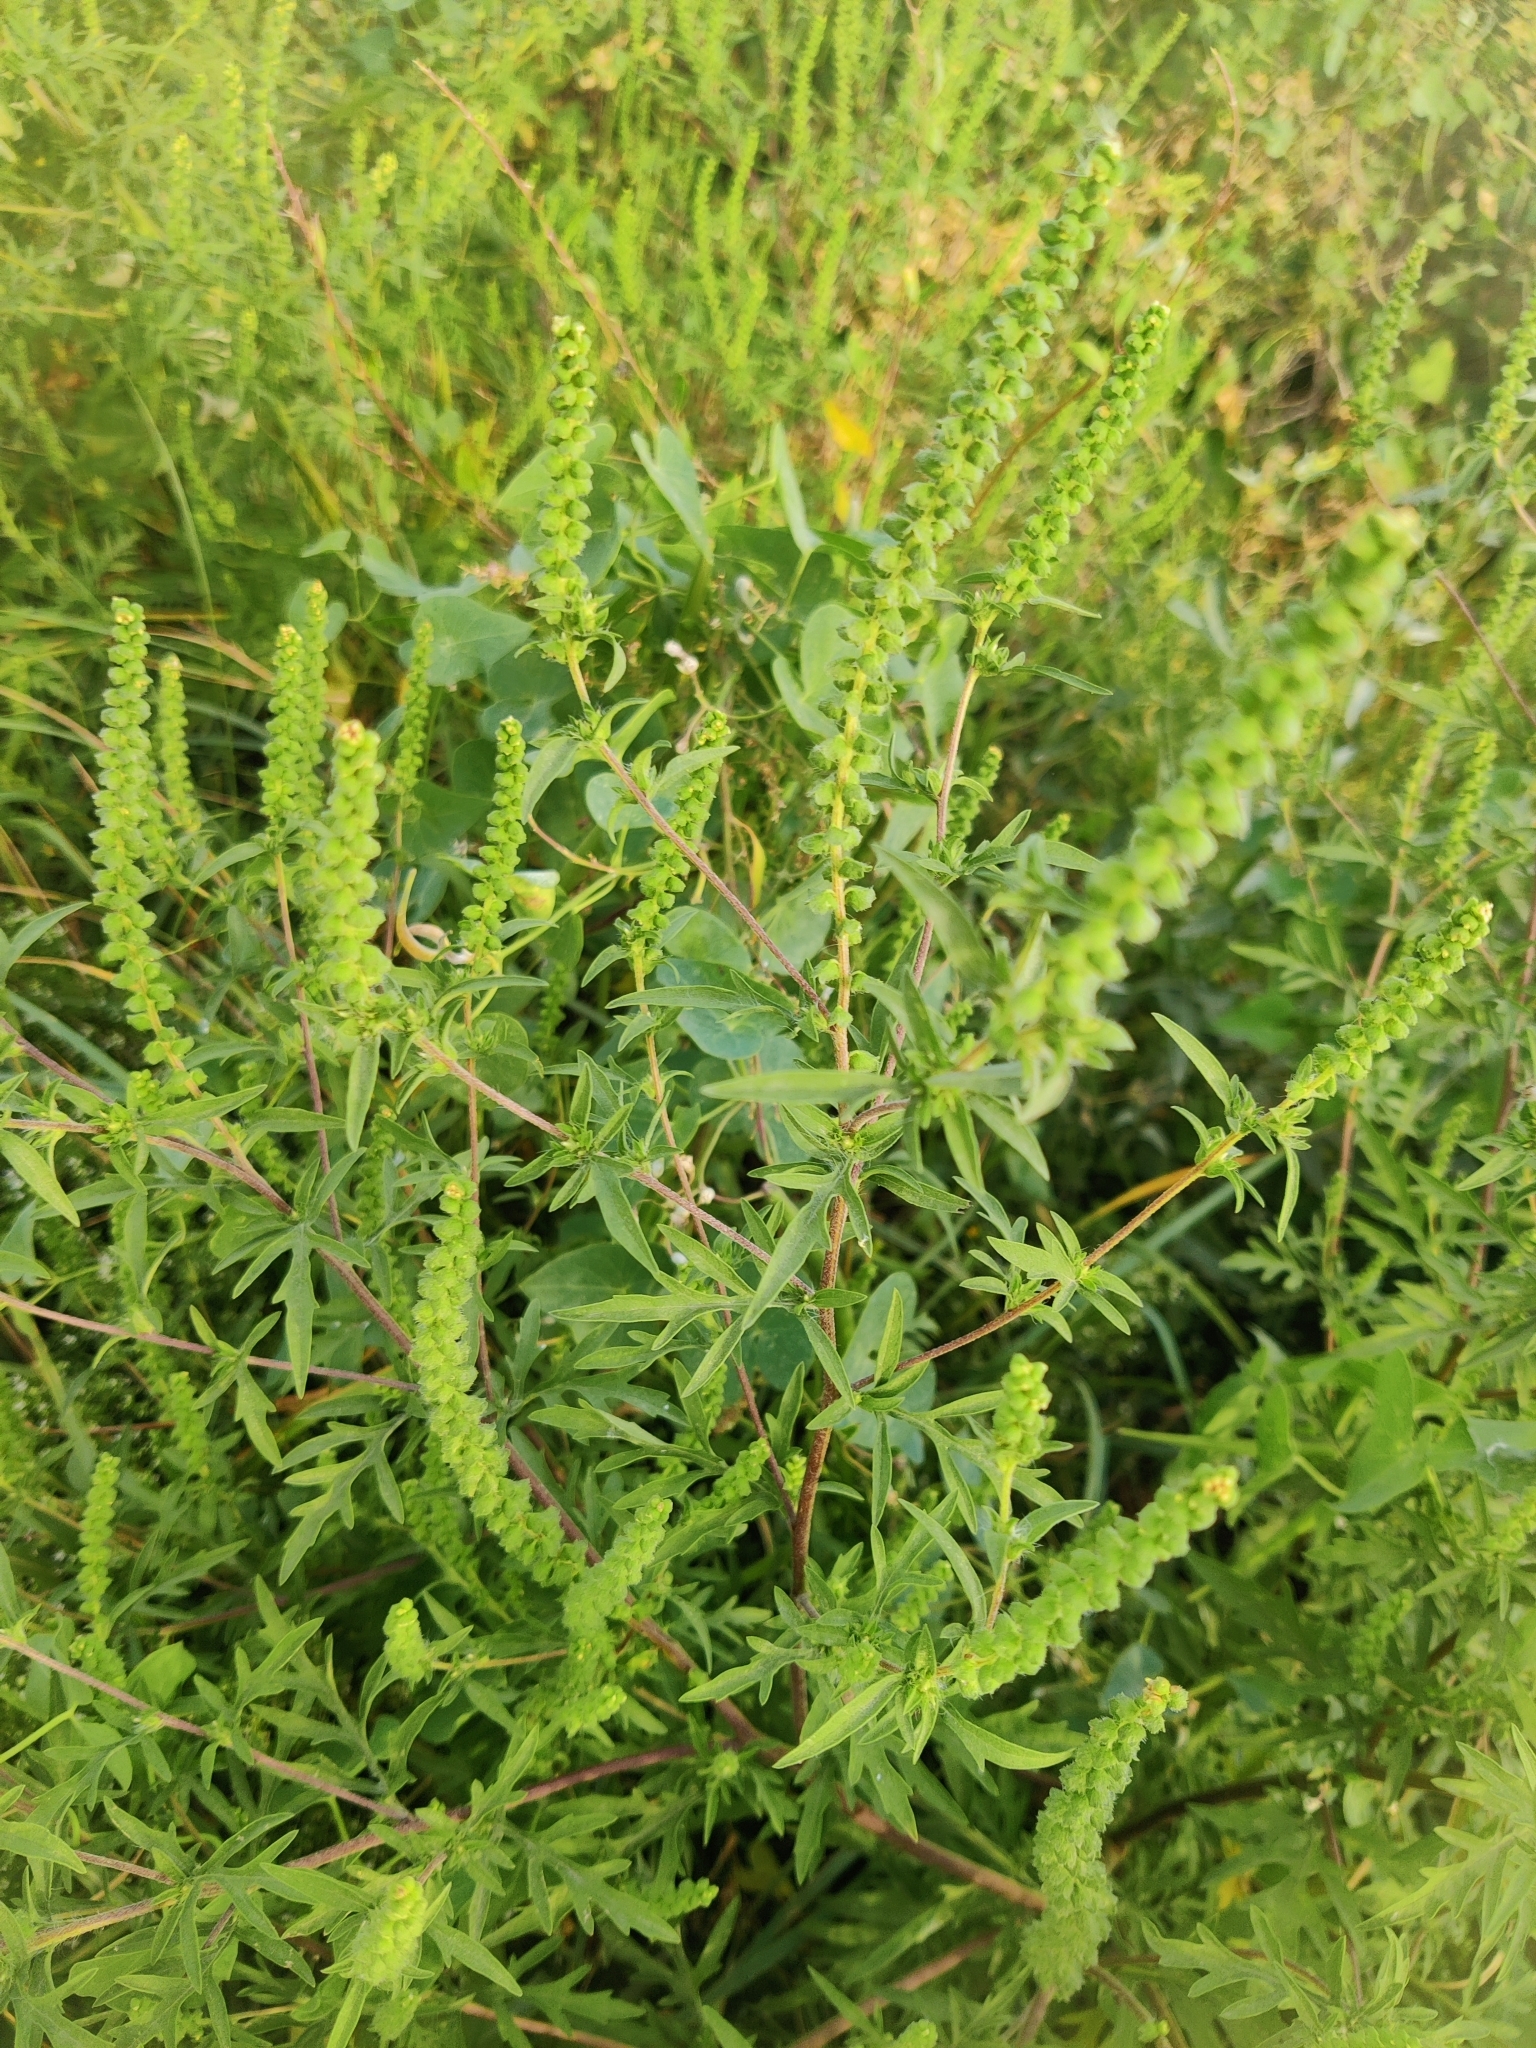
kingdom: Plantae
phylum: Tracheophyta
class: Magnoliopsida
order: Asterales
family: Asteraceae
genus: Ambrosia
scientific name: Ambrosia artemisiifolia
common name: Annual ragweed
